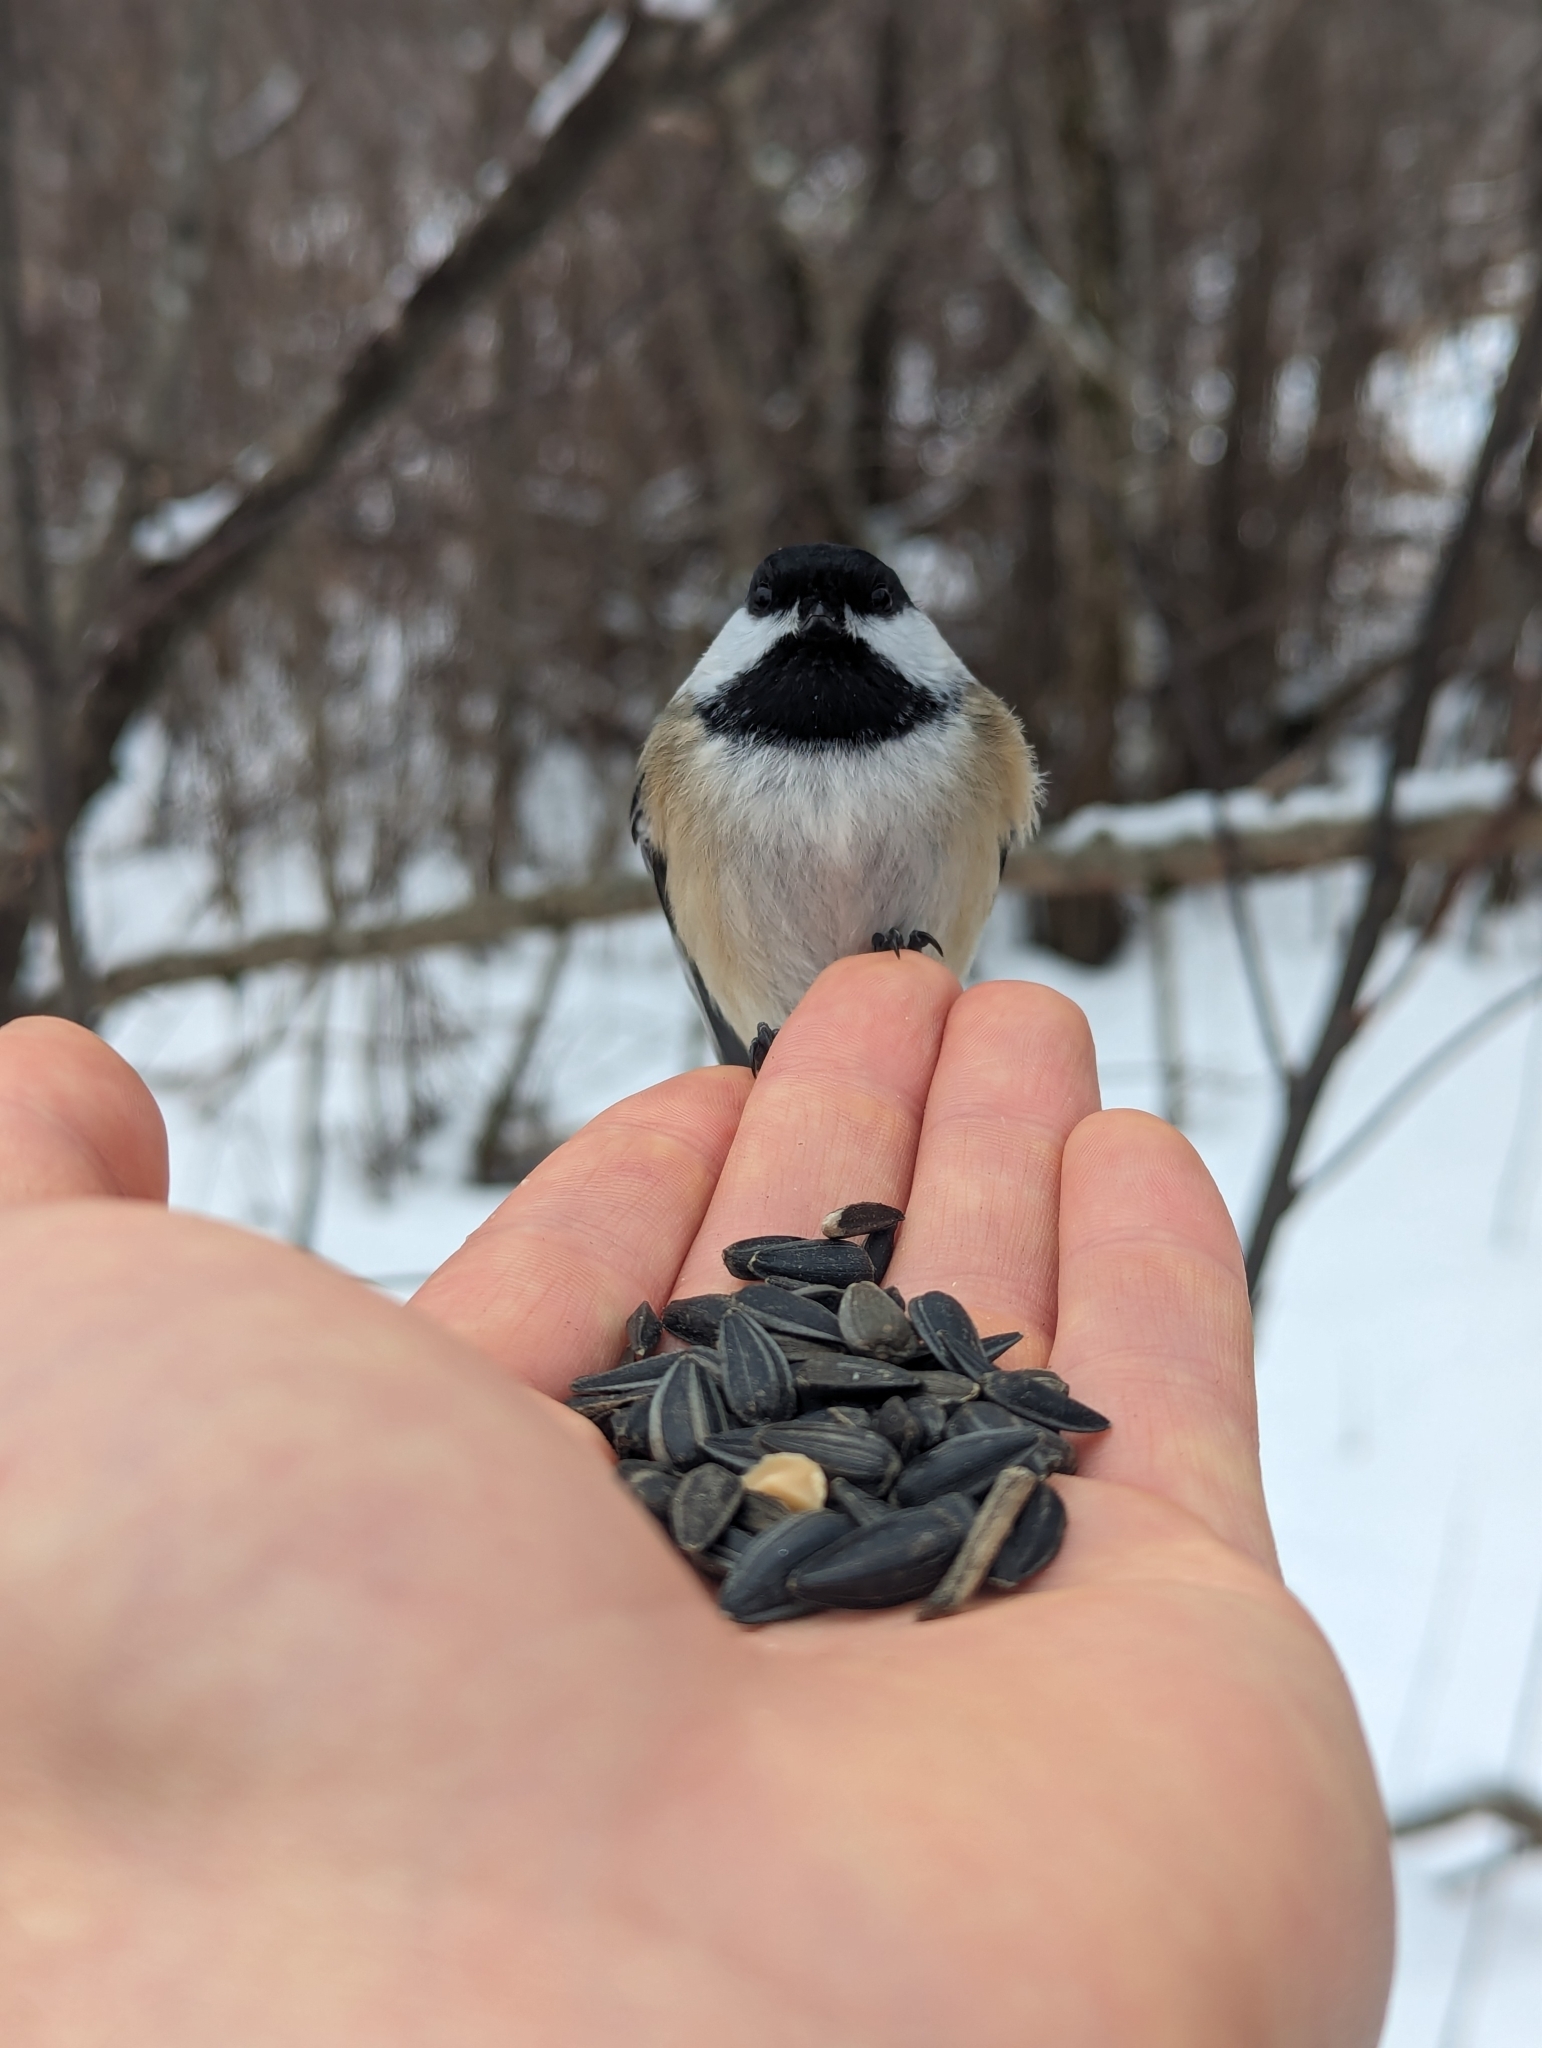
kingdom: Animalia
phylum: Chordata
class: Aves
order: Passeriformes
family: Paridae
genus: Poecile
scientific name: Poecile atricapillus
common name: Black-capped chickadee
